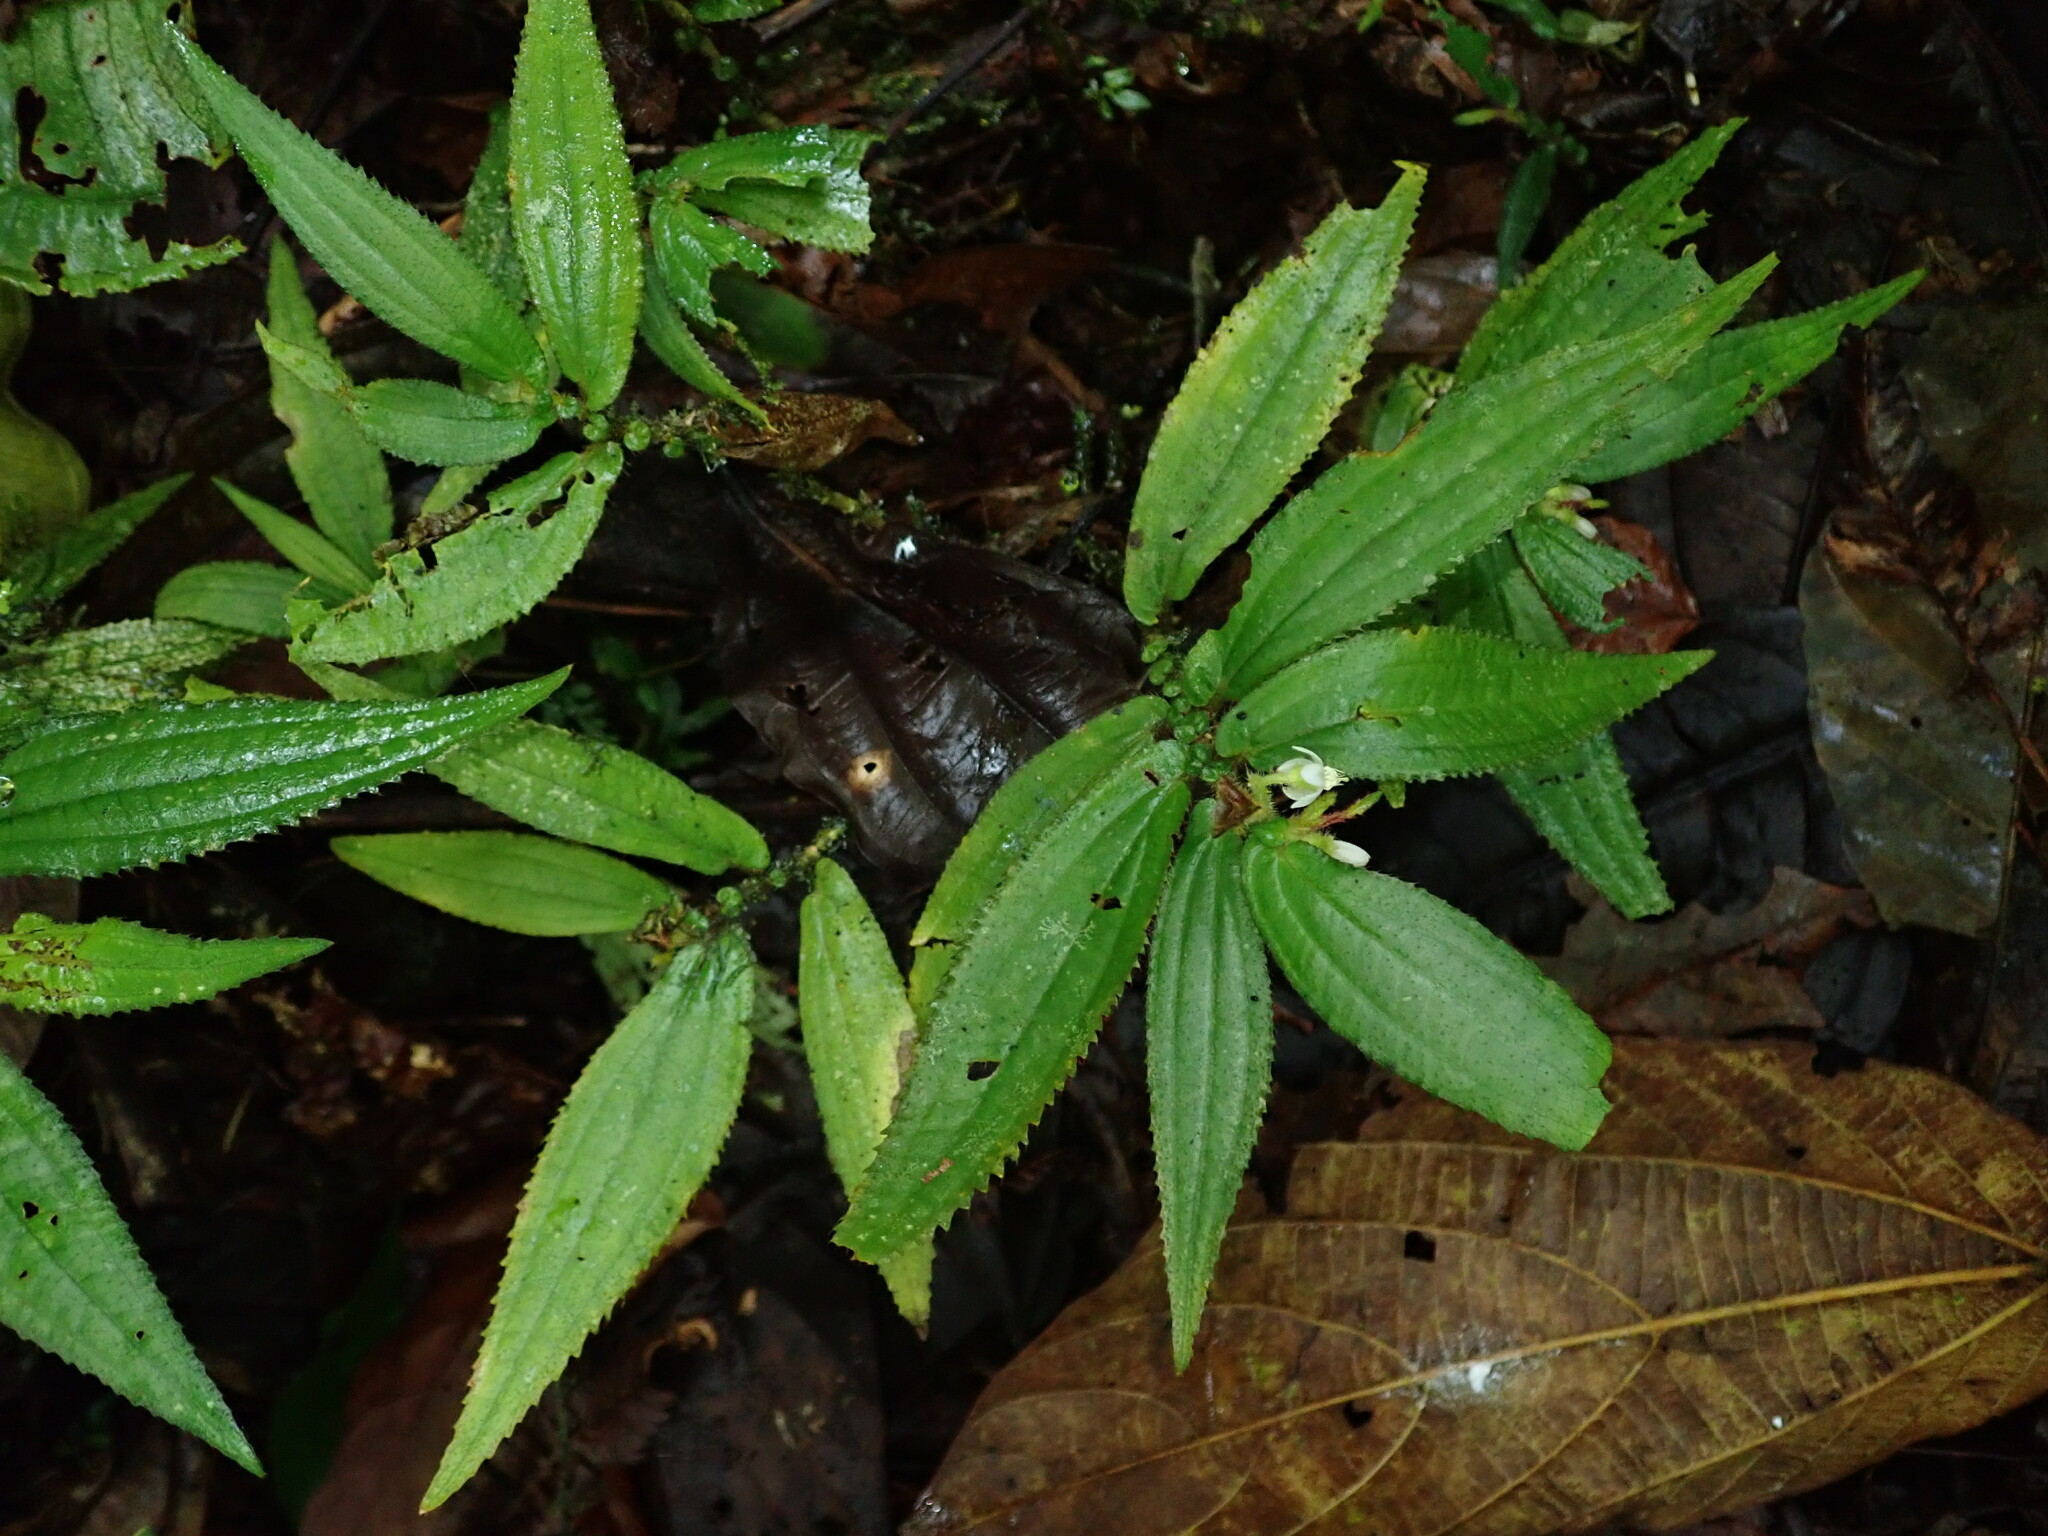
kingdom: Plantae
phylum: Tracheophyta
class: Magnoliopsida
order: Myrtales
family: Melastomataceae
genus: Triolena
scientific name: Triolena obliqua
